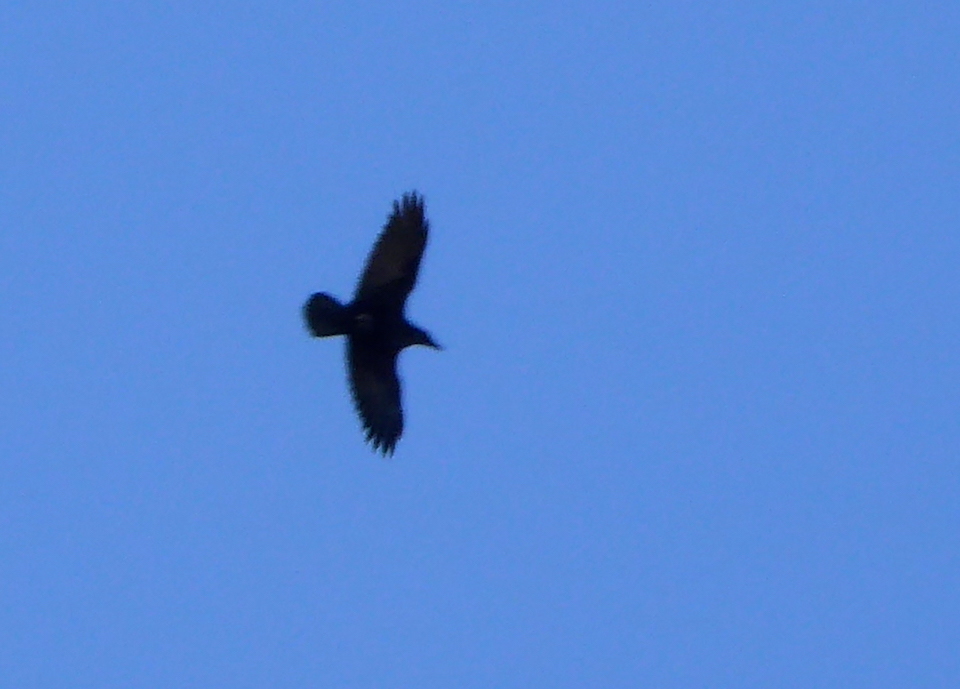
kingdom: Animalia
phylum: Chordata
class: Aves
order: Passeriformes
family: Corvidae
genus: Corvus
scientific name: Corvus corax
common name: Common raven
